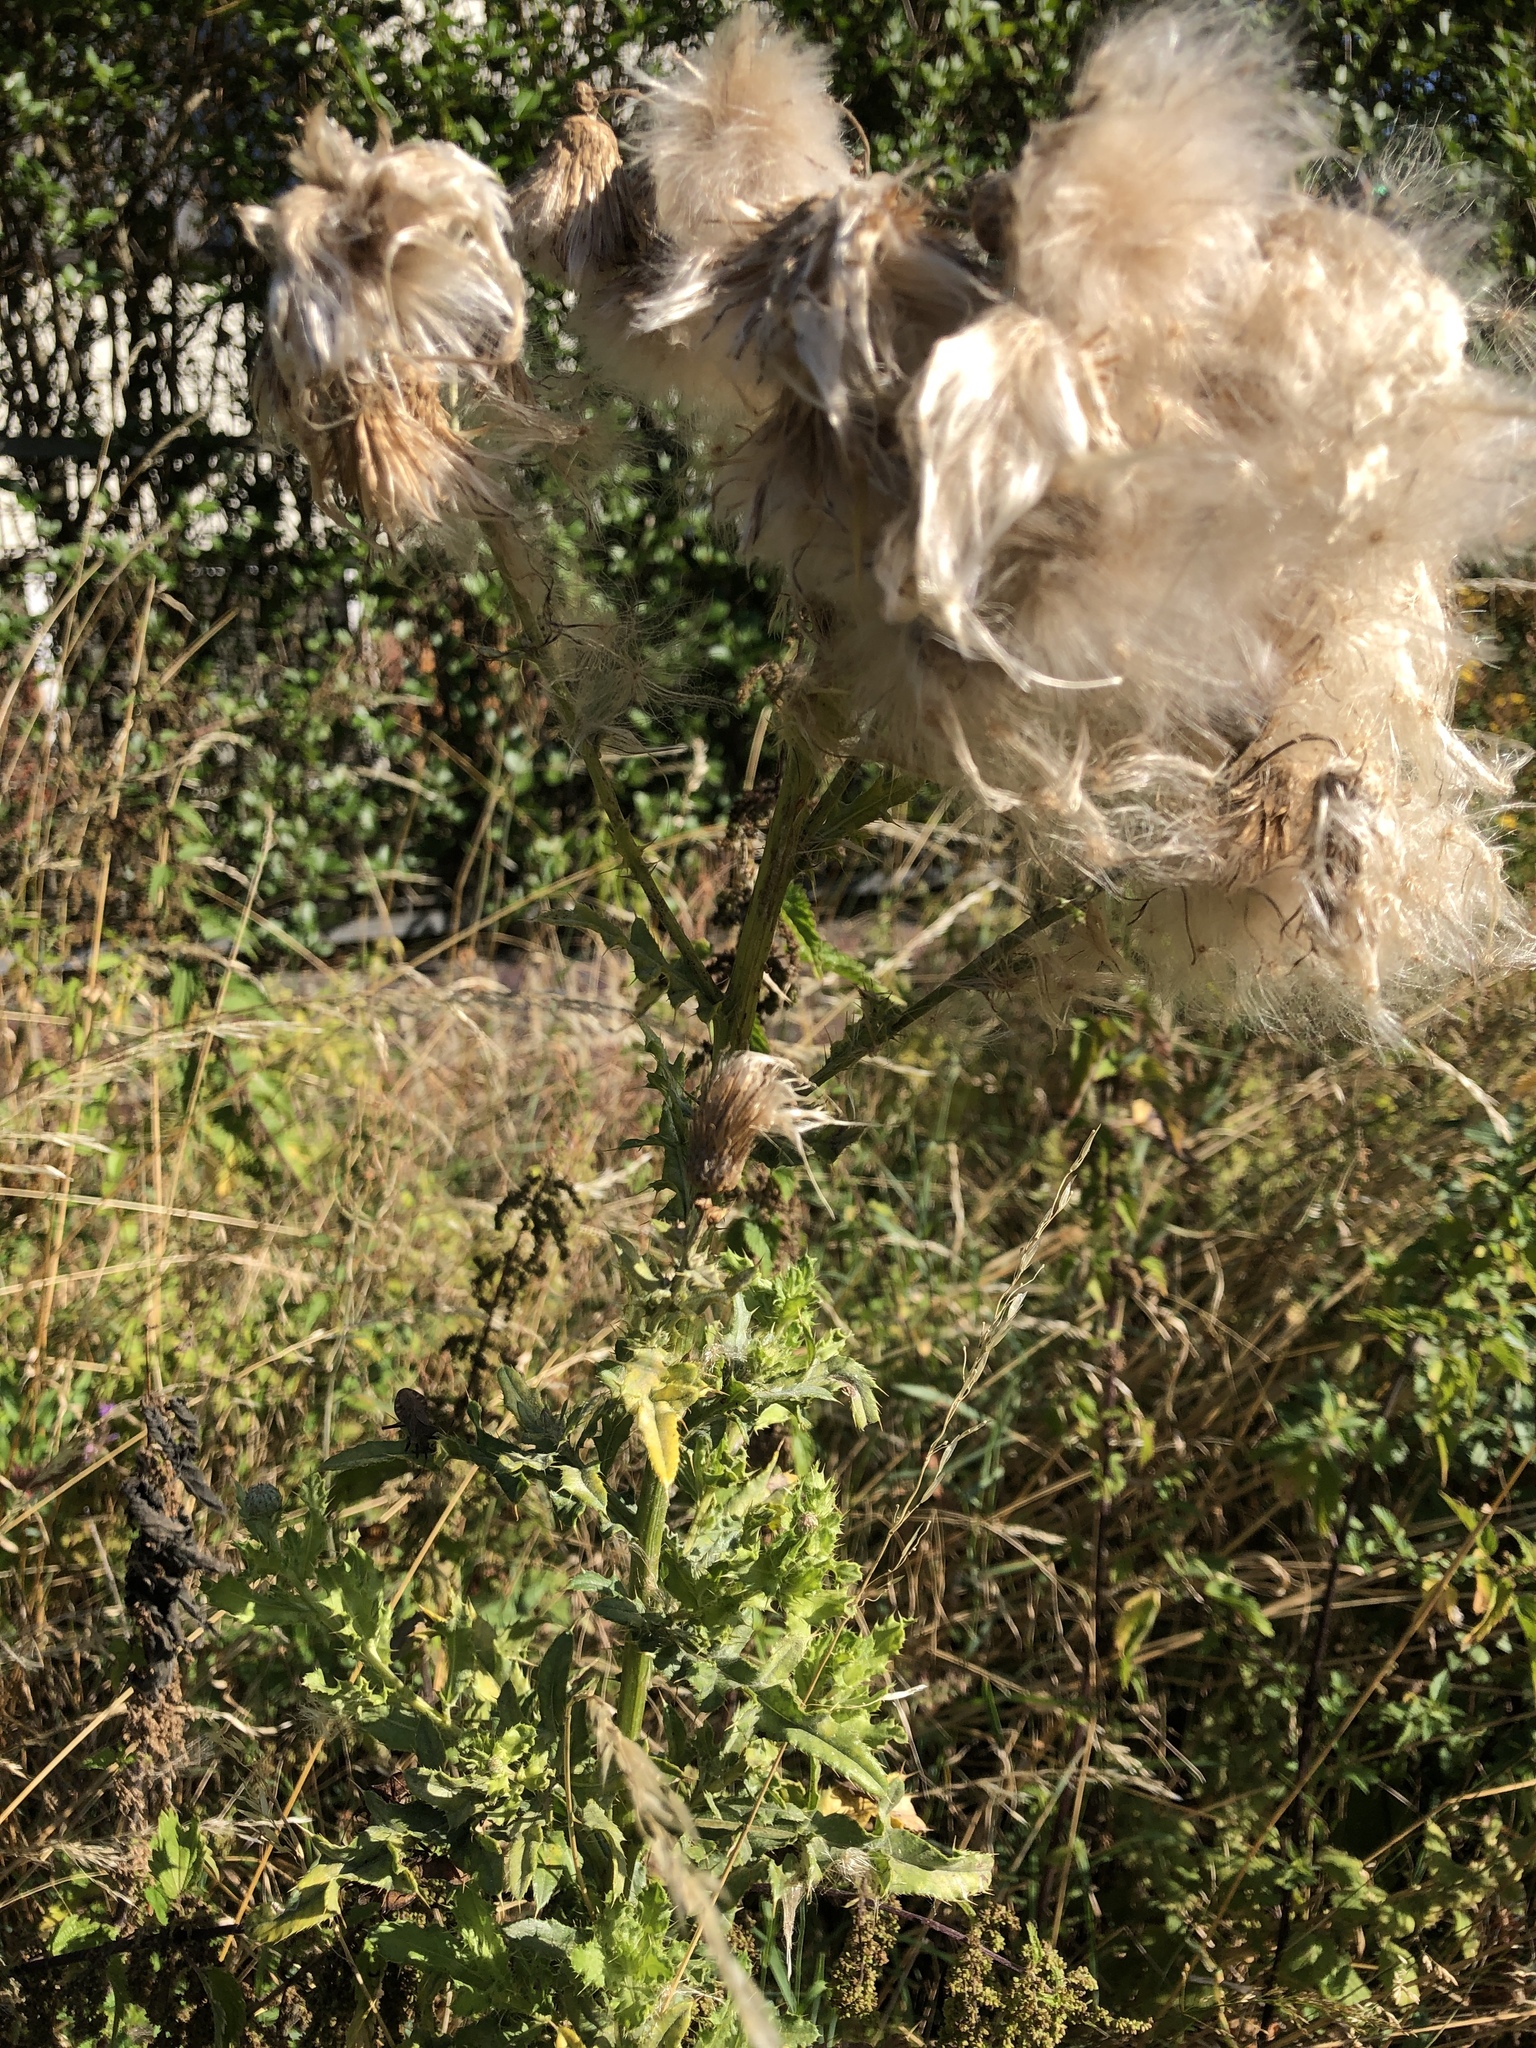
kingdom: Plantae
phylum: Tracheophyta
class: Magnoliopsida
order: Asterales
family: Asteraceae
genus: Cirsium
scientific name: Cirsium arvense
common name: Creeping thistle
